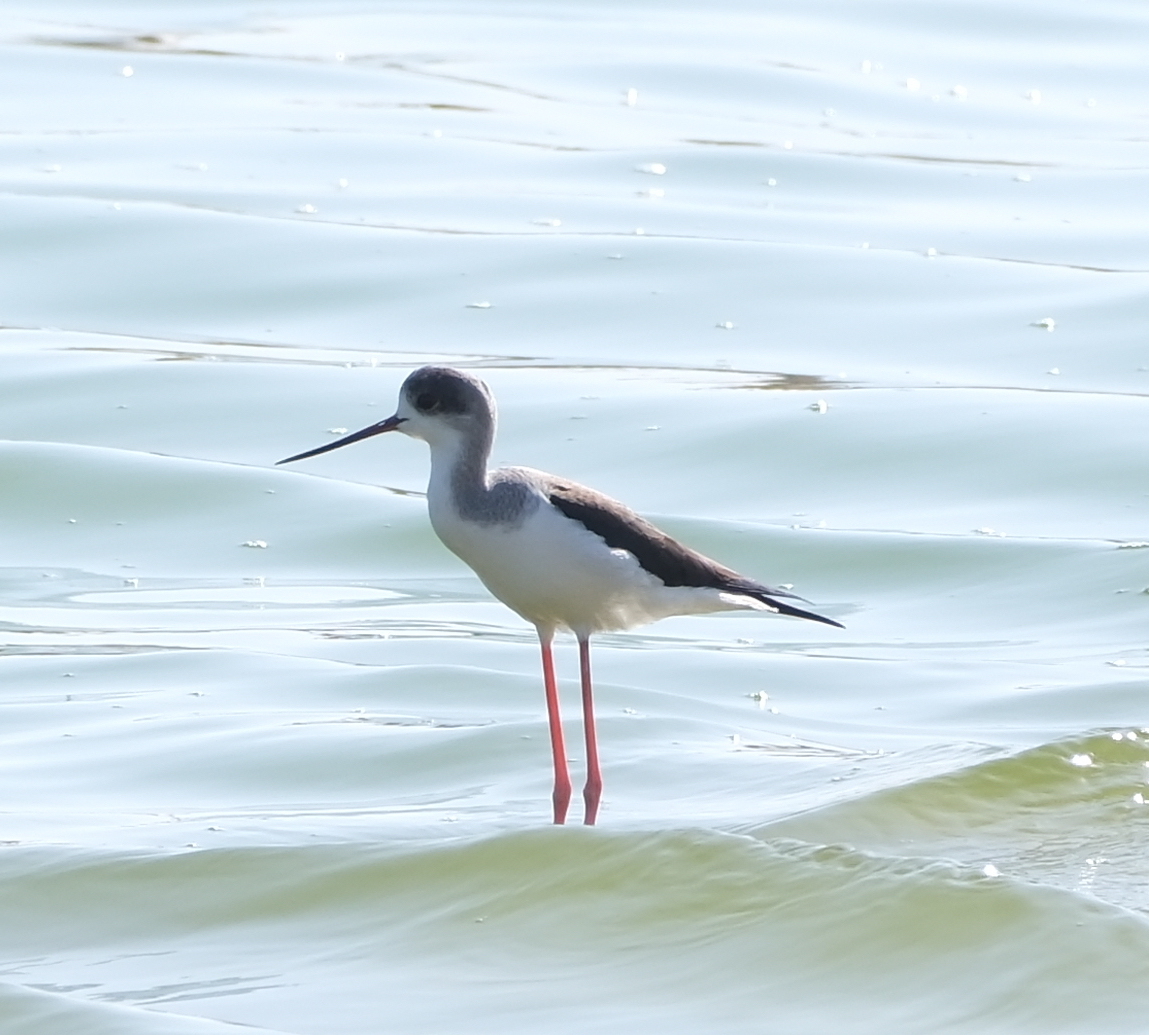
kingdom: Animalia
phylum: Chordata
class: Aves
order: Charadriiformes
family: Recurvirostridae
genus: Himantopus
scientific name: Himantopus himantopus
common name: Black-winged stilt
